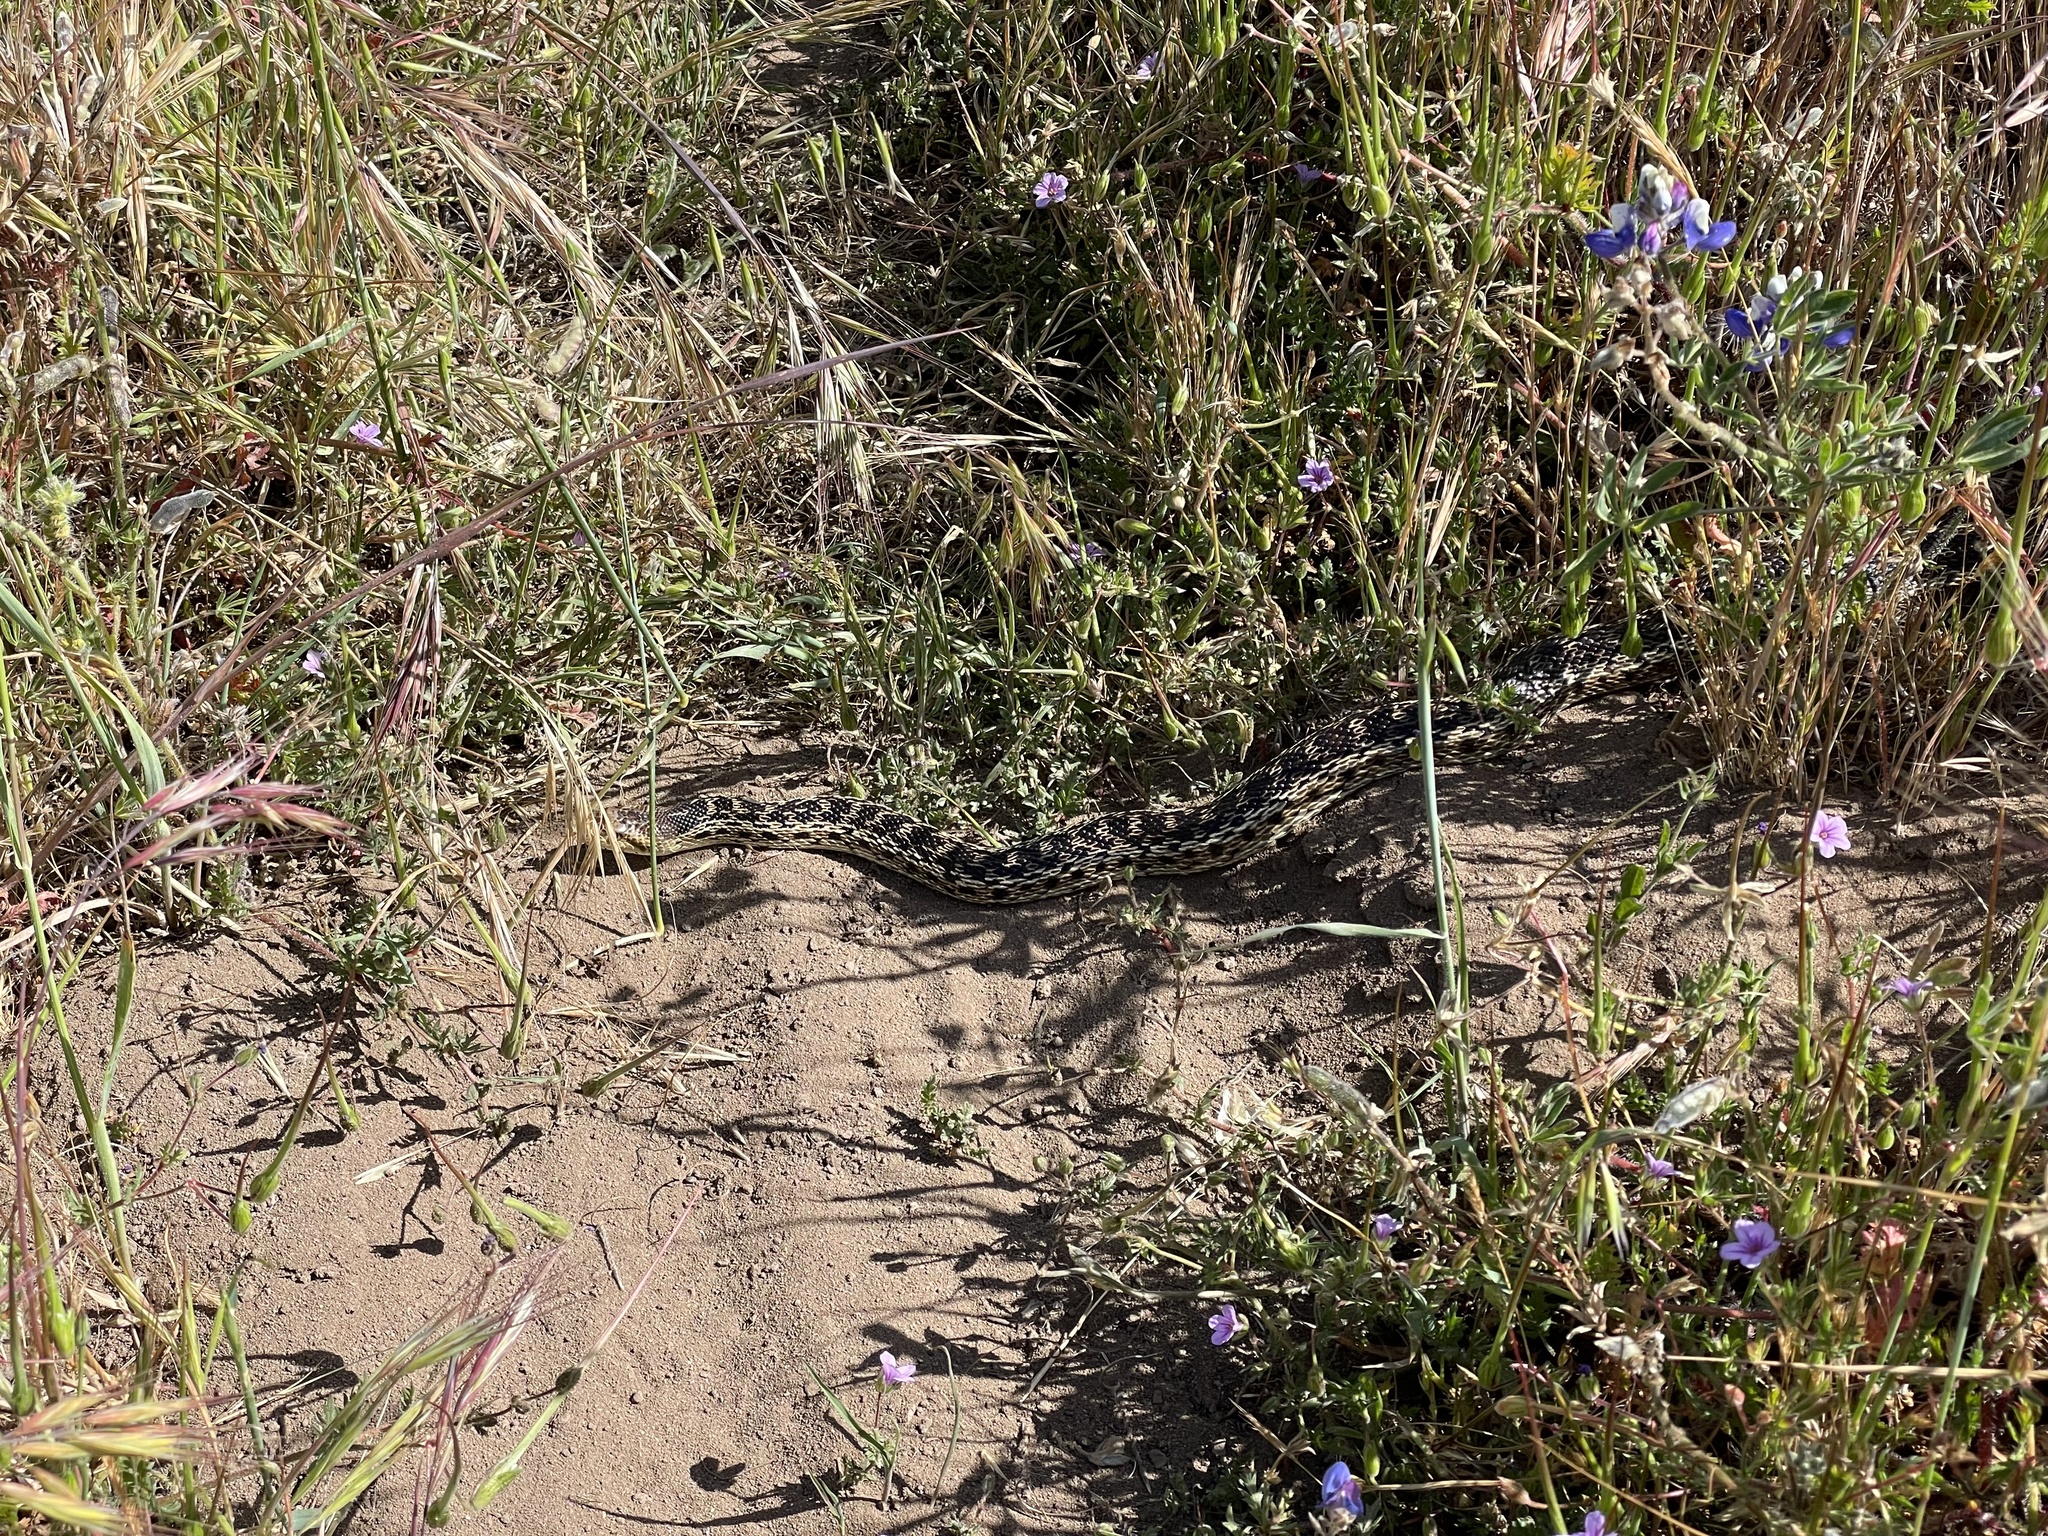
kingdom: Animalia
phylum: Chordata
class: Squamata
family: Colubridae
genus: Pituophis
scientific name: Pituophis catenifer
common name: Gopher snake
